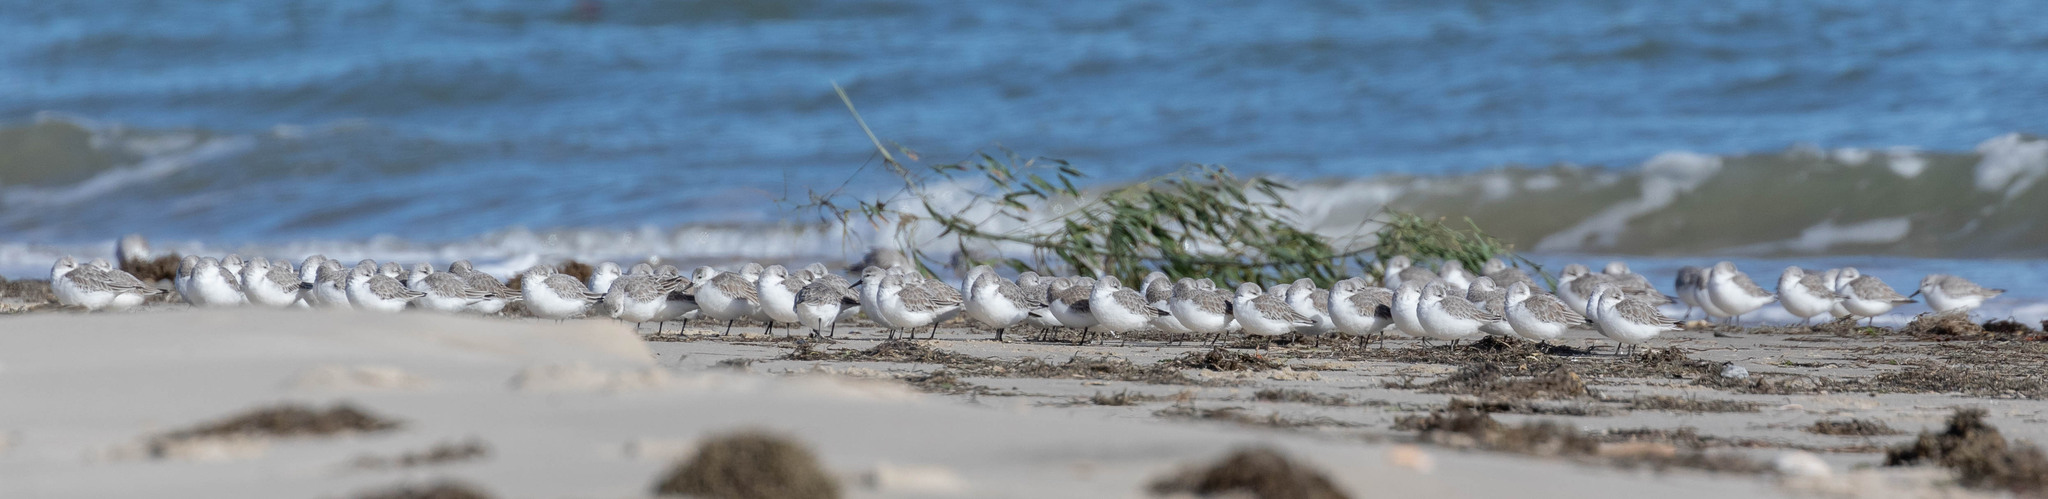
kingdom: Animalia
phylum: Chordata
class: Aves
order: Charadriiformes
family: Scolopacidae
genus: Calidris
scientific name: Calidris alba
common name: Sanderling
